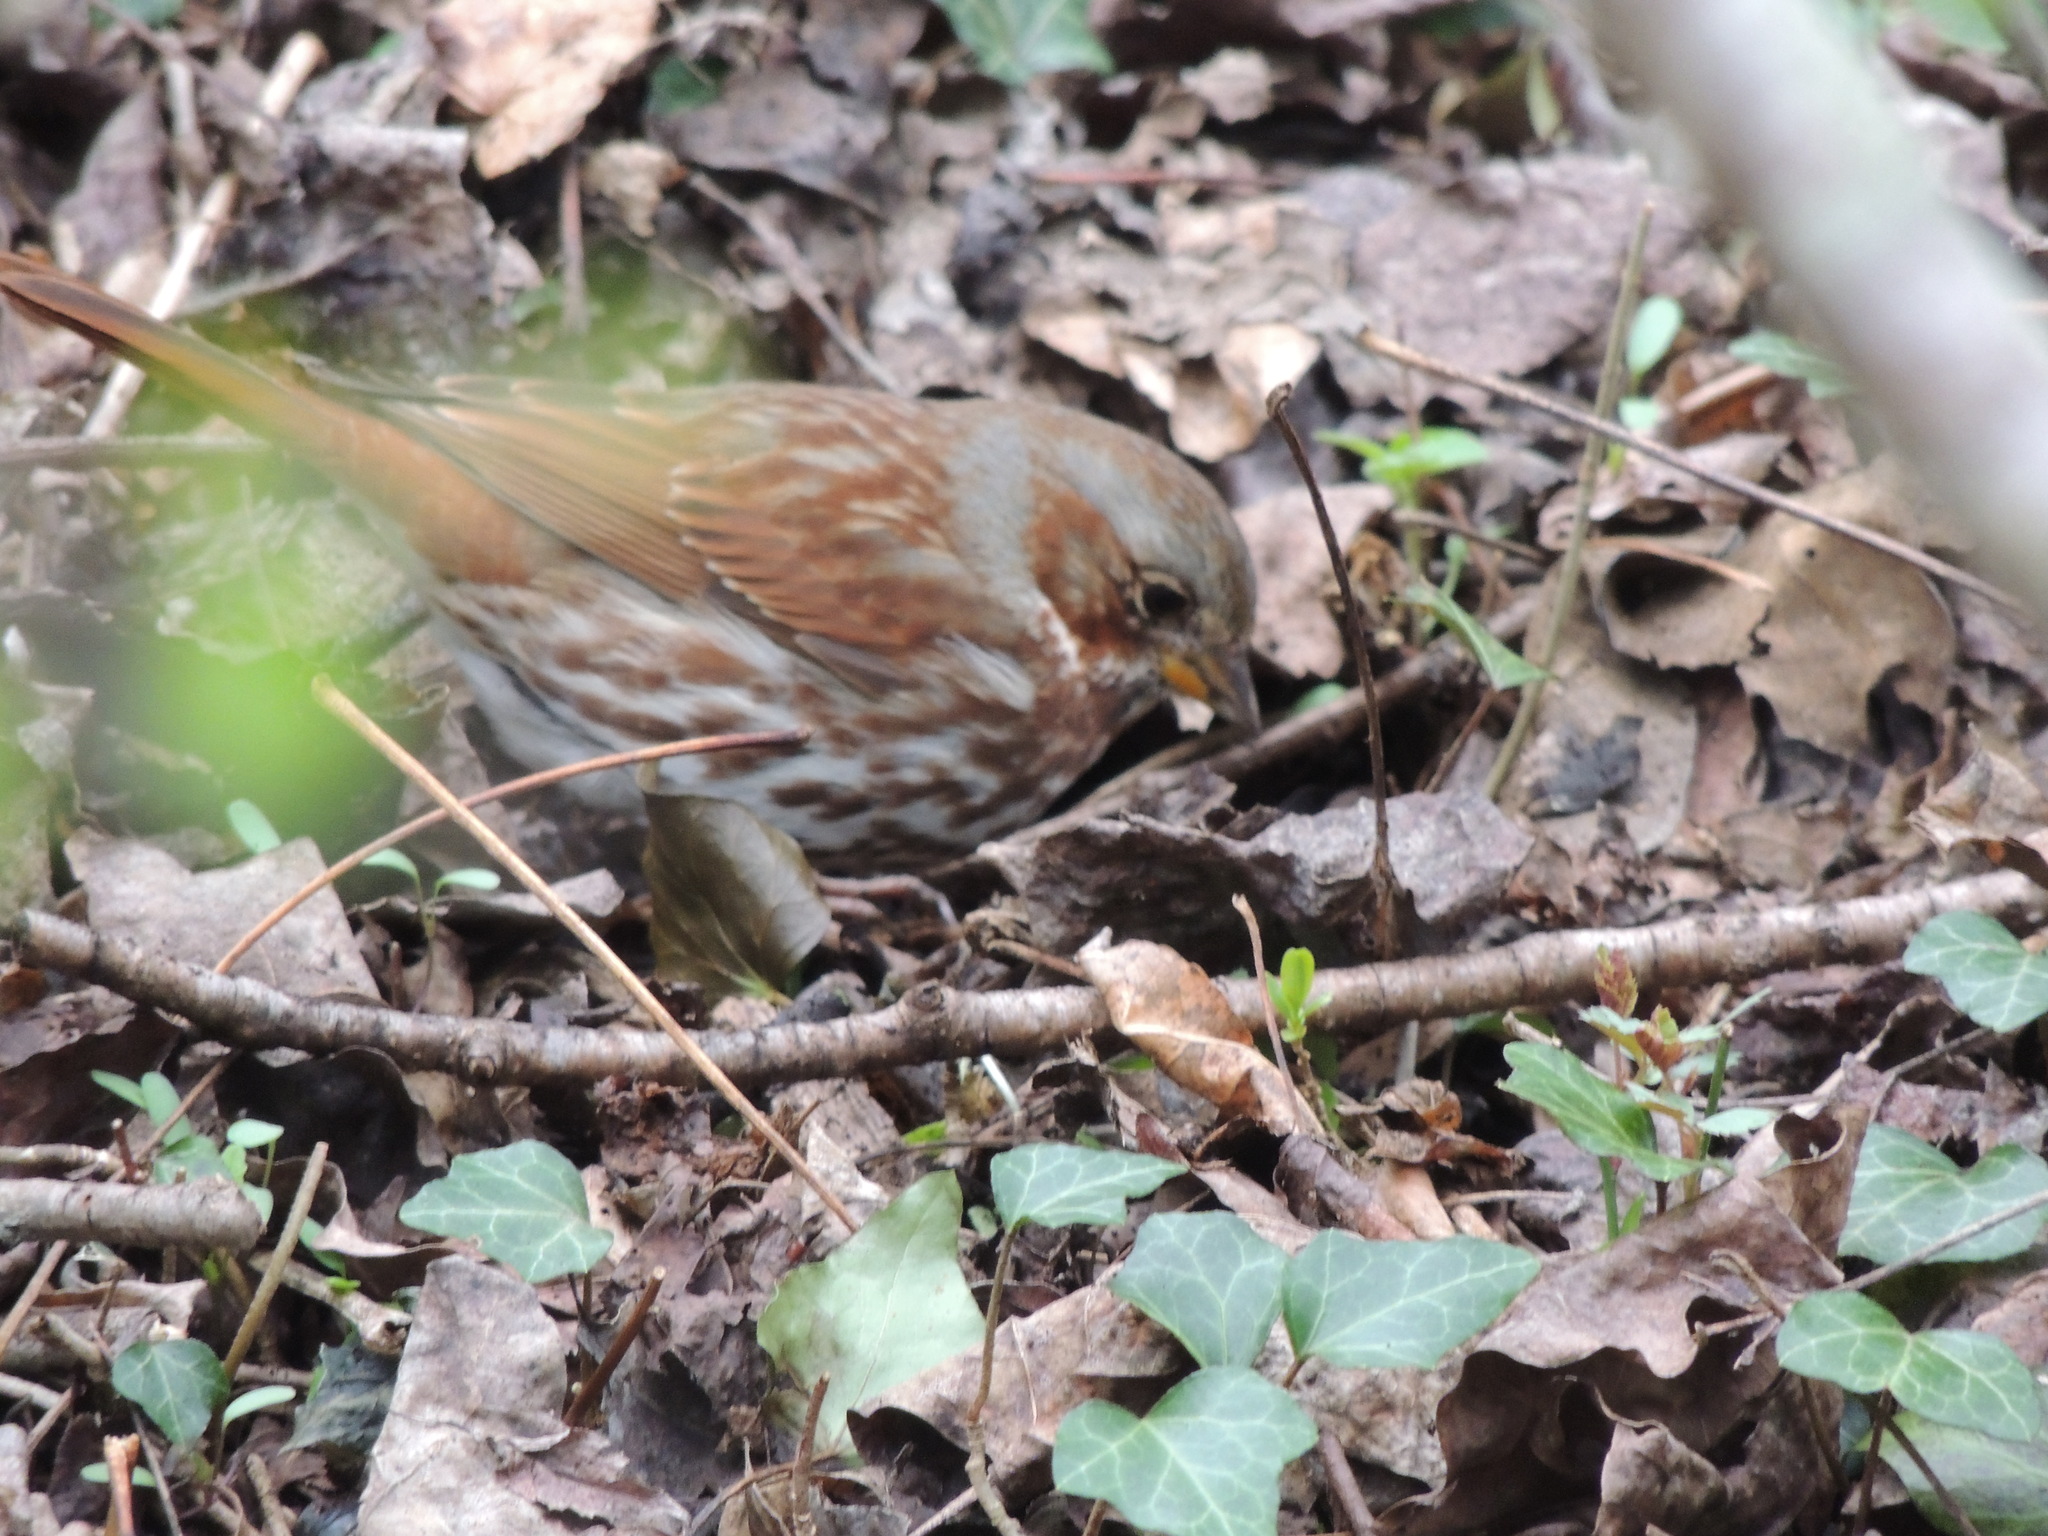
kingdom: Animalia
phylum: Chordata
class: Aves
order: Passeriformes
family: Passerellidae
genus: Passerella
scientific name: Passerella iliaca
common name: Fox sparrow
